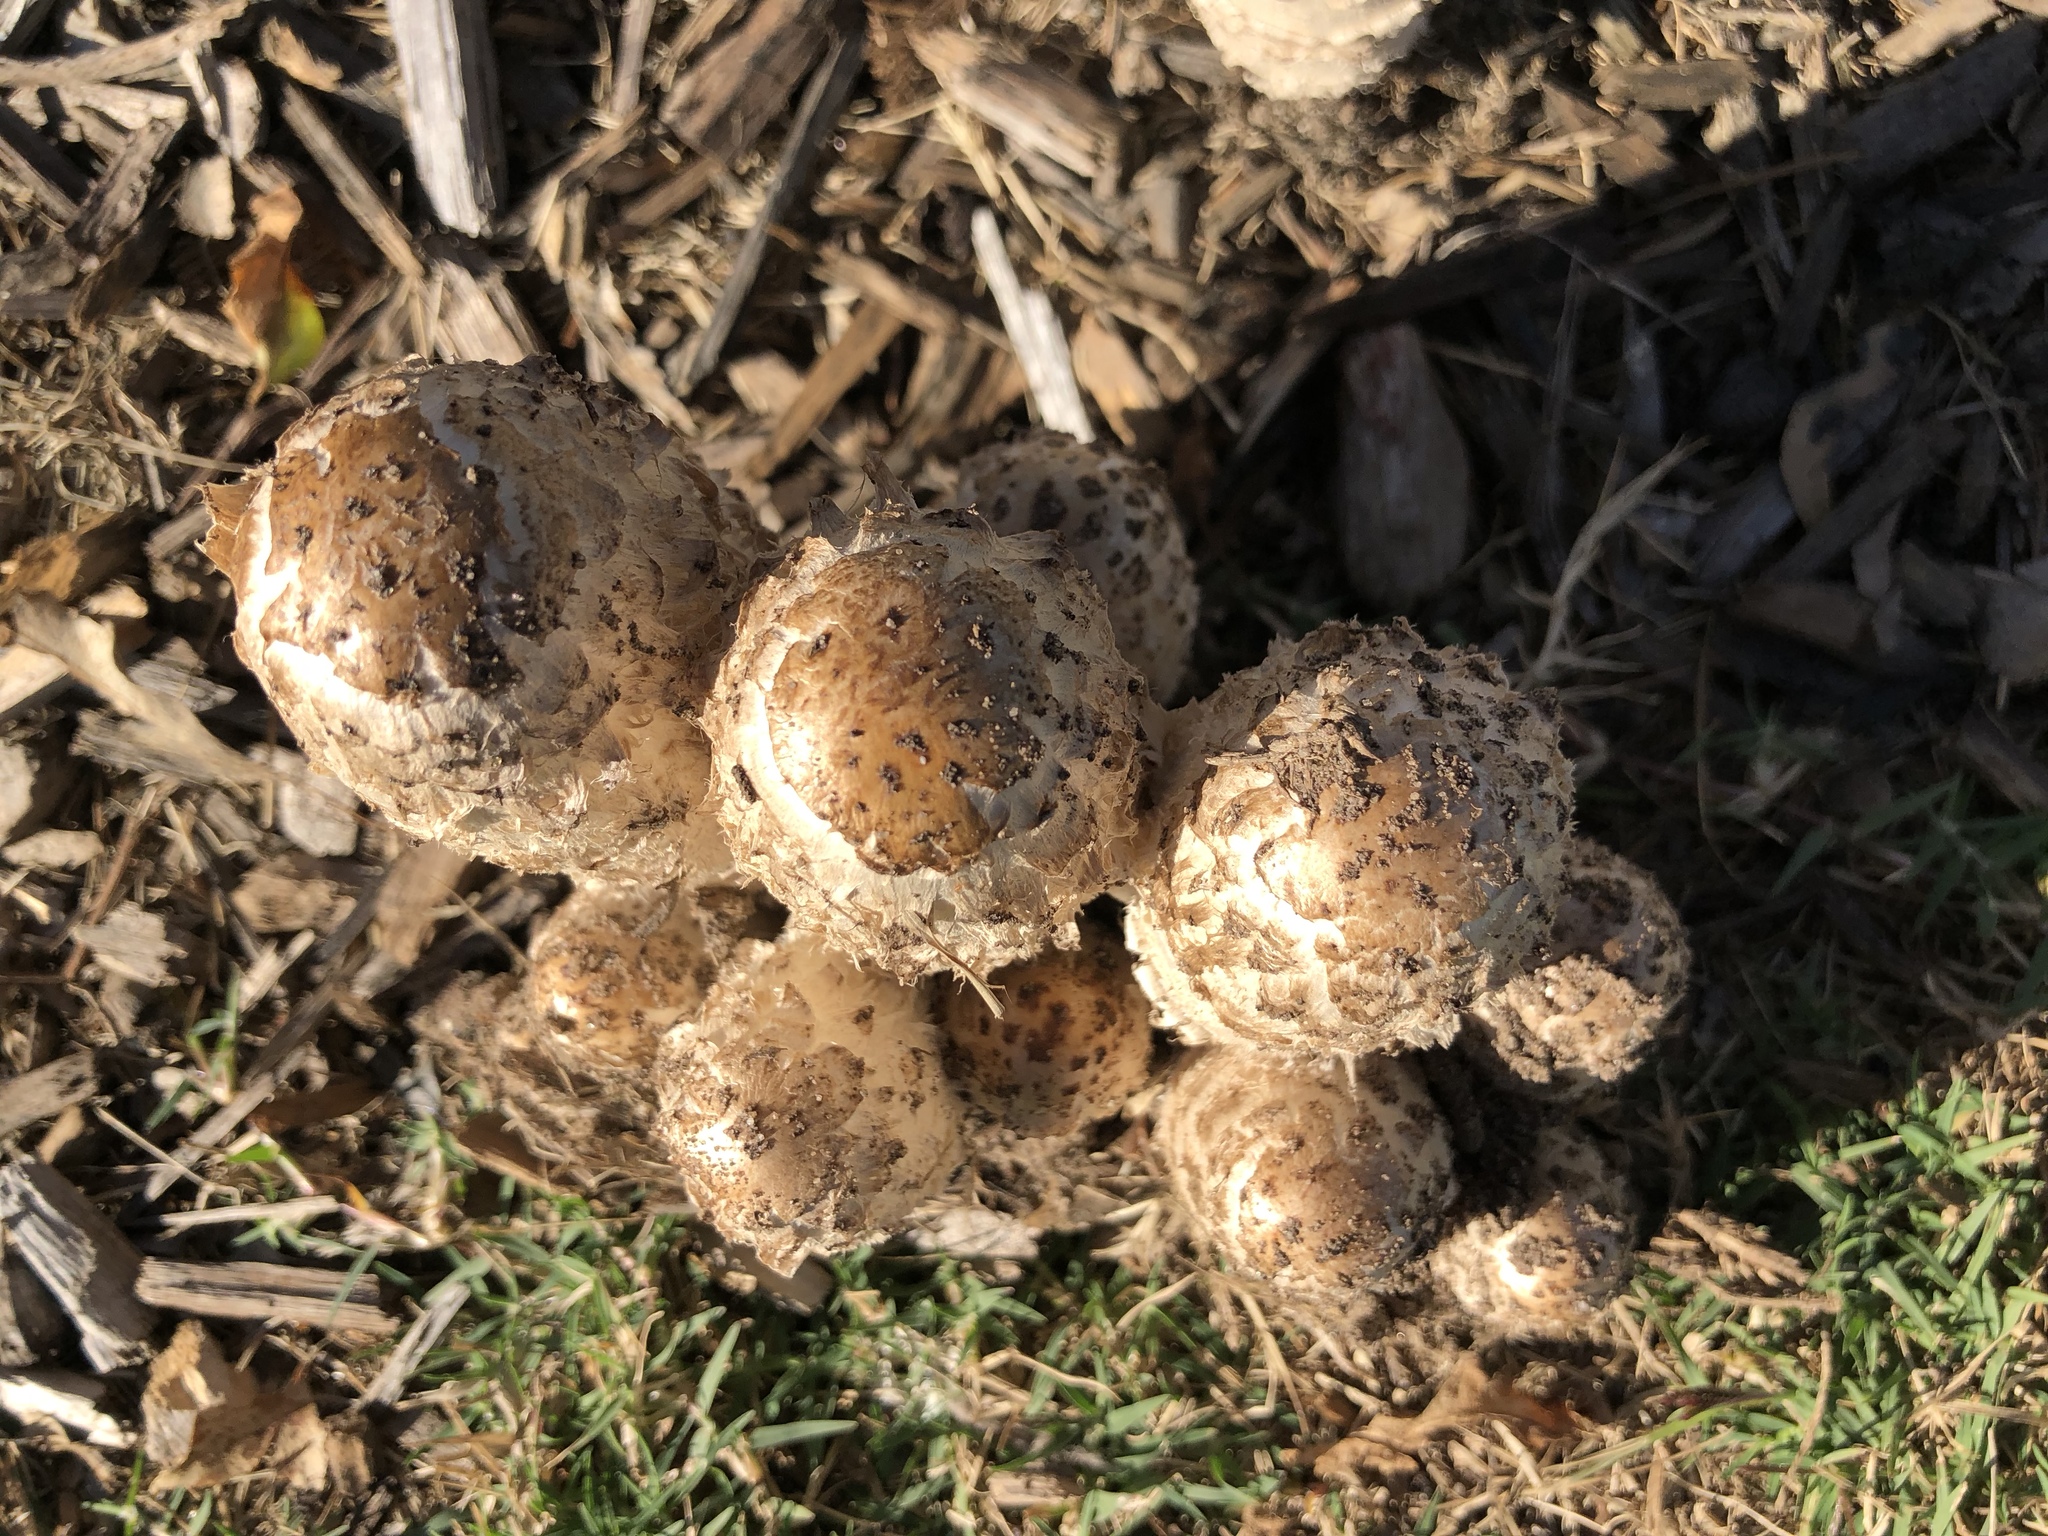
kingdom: Fungi
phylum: Basidiomycota
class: Agaricomycetes
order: Agaricales
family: Agaricaceae
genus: Coprinus
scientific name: Coprinus comatus
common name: Lawyer's wig
